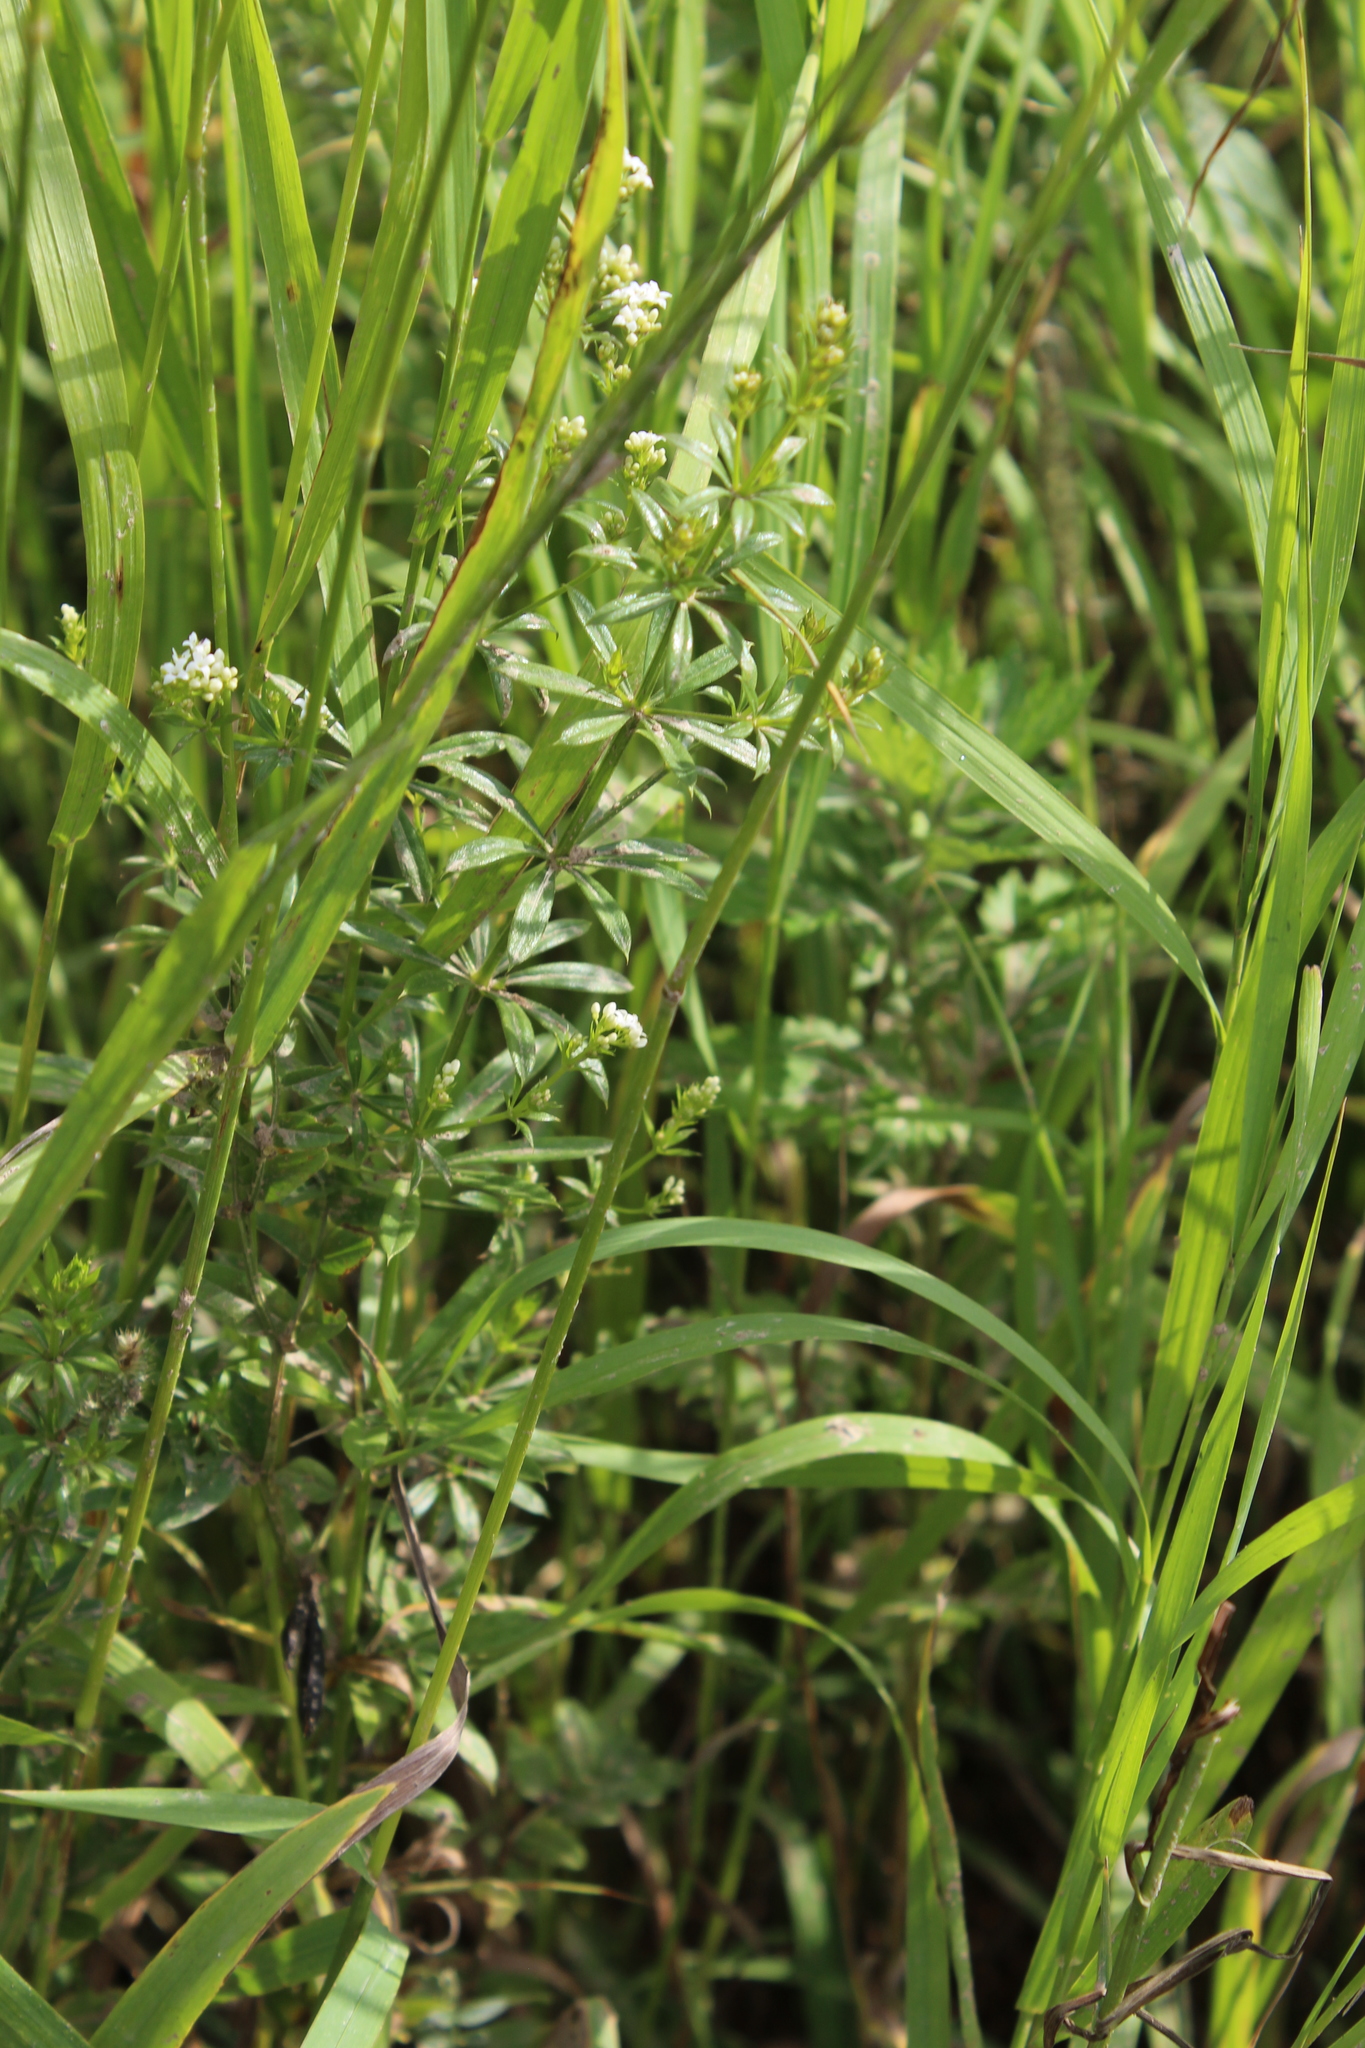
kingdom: Plantae
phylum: Tracheophyta
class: Magnoliopsida
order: Gentianales
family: Rubiaceae
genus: Galium
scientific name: Galium rivale
